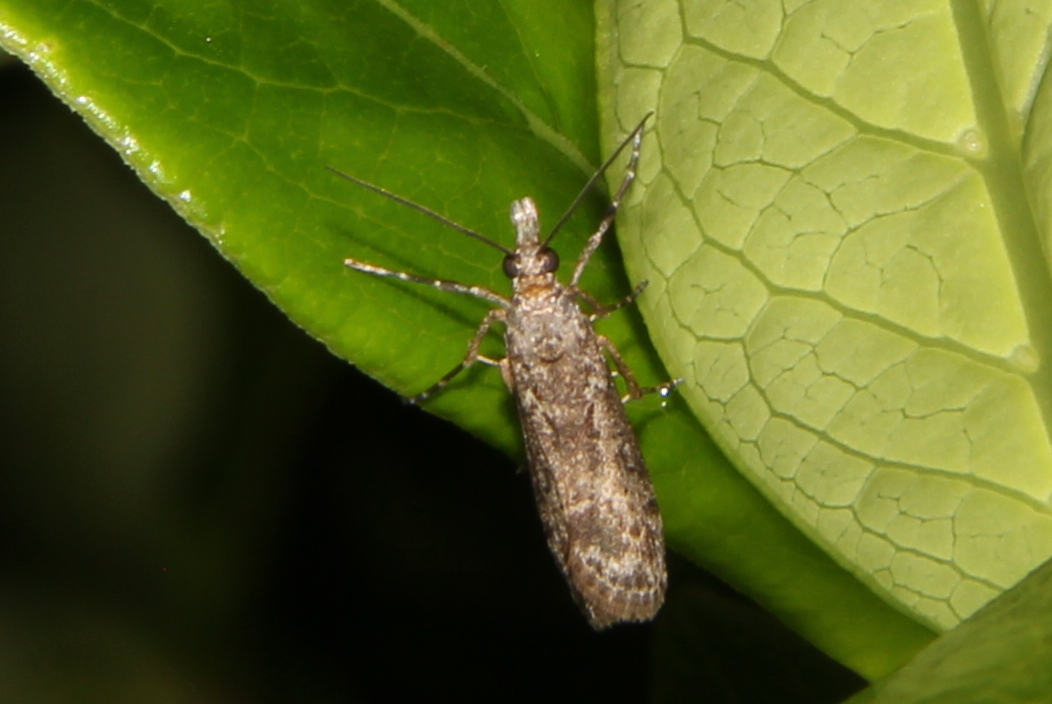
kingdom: Animalia
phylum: Arthropoda
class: Insecta
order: Lepidoptera
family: Crambidae
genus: Eudonia
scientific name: Eudonia leptalea
